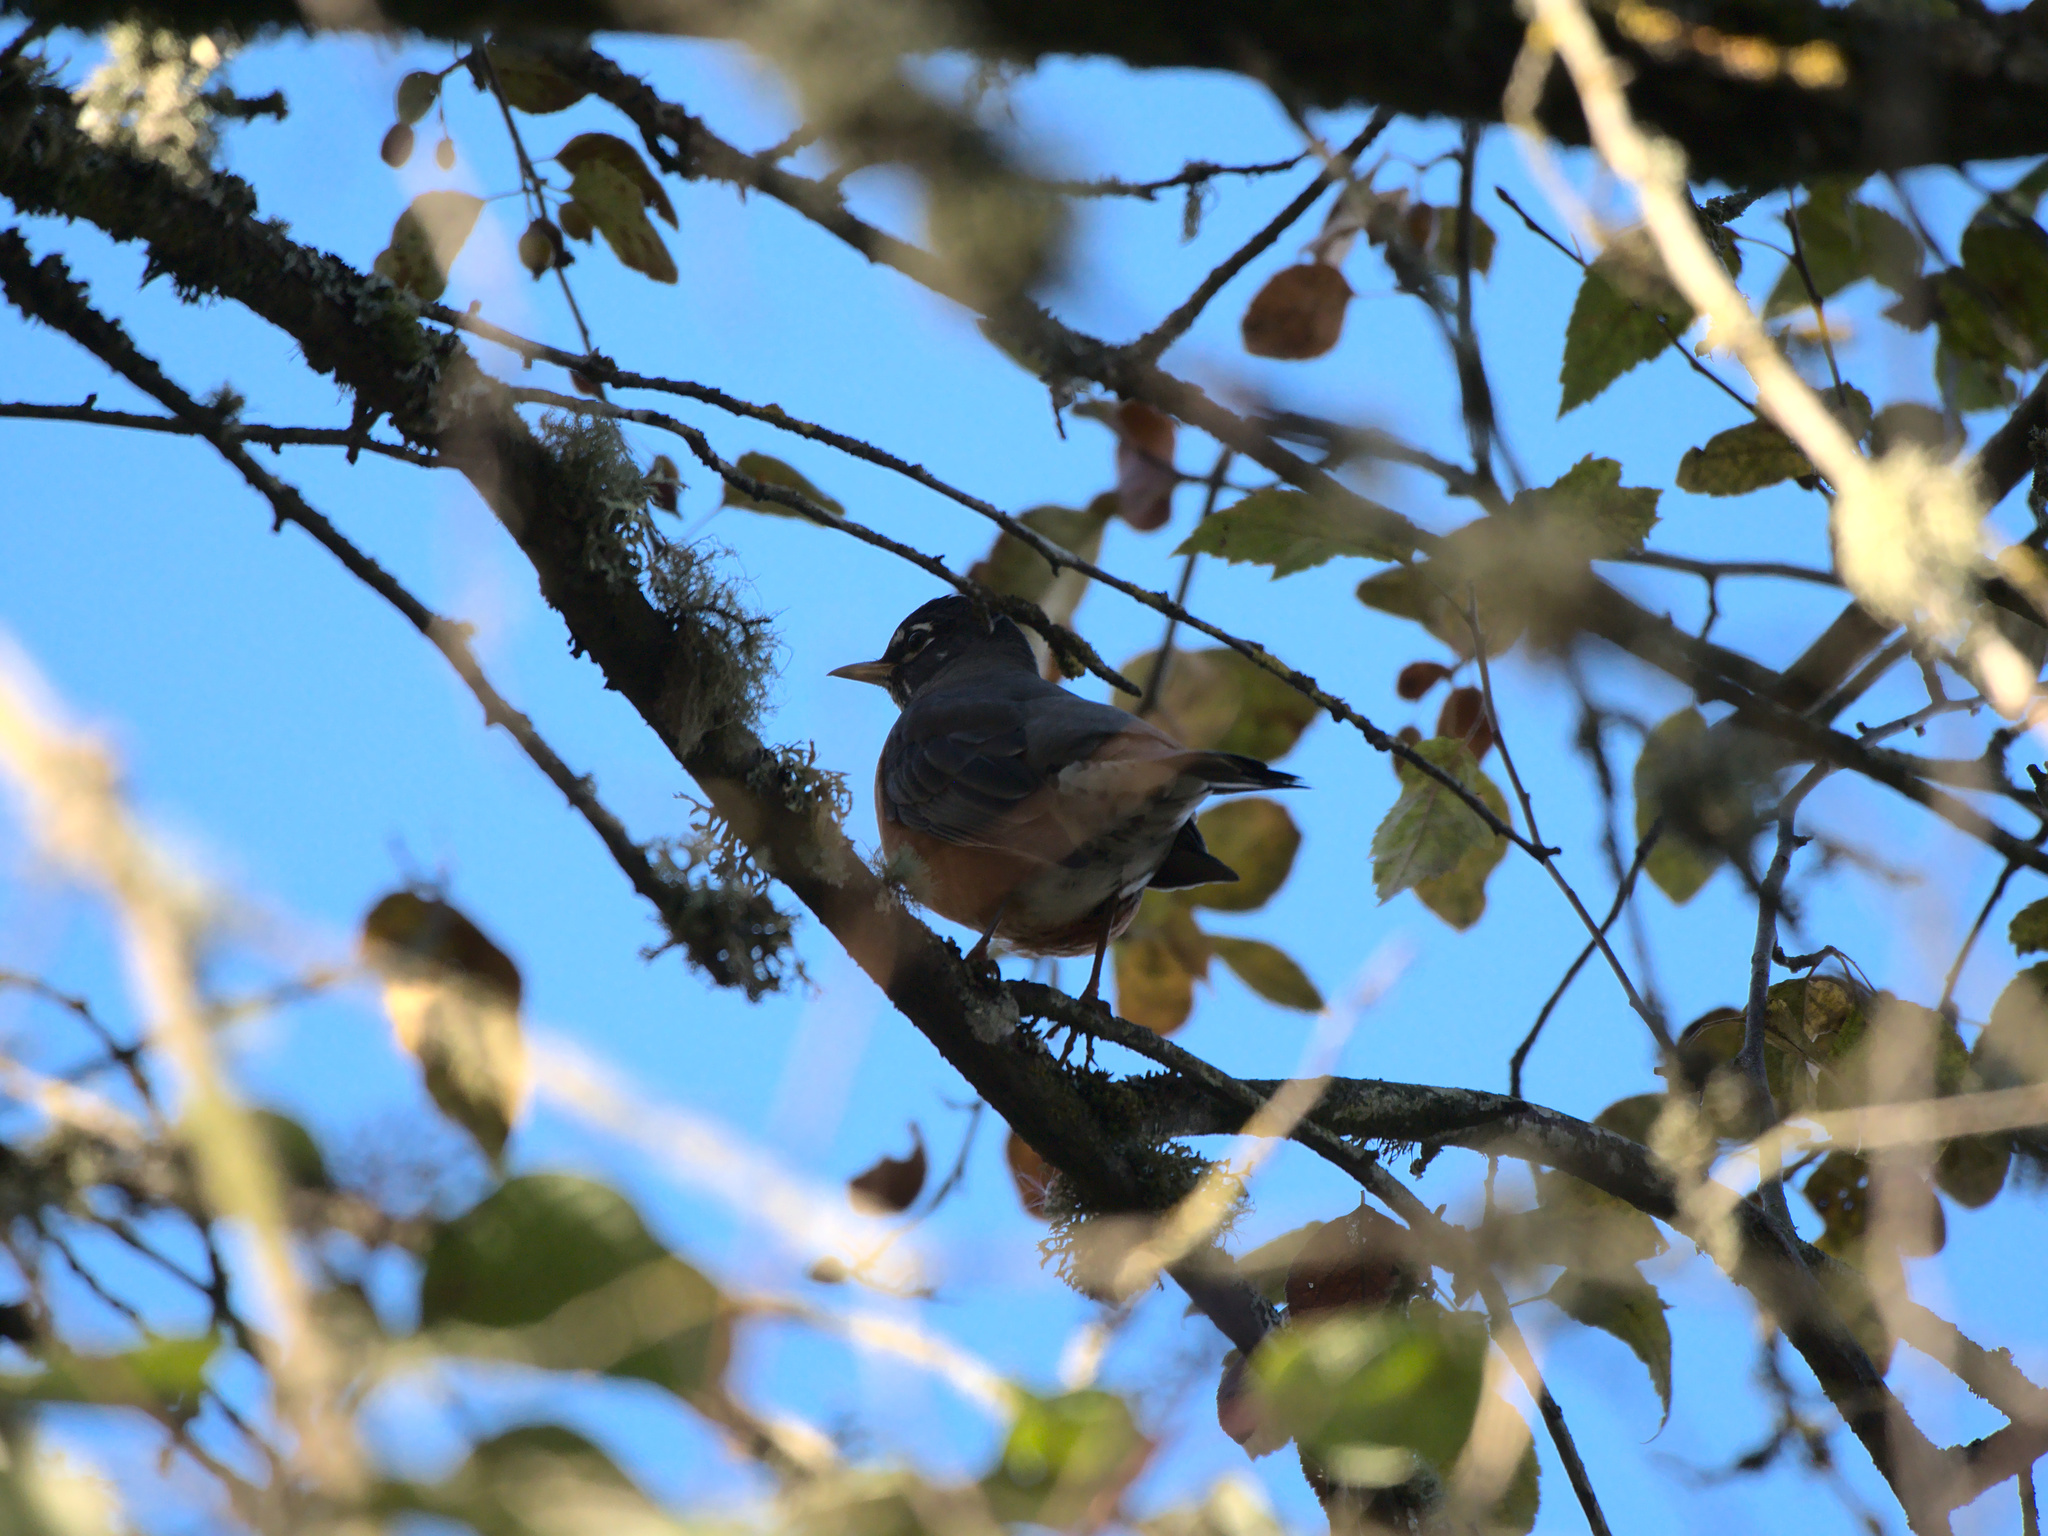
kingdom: Animalia
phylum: Chordata
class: Aves
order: Passeriformes
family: Turdidae
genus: Turdus
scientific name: Turdus migratorius
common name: American robin
